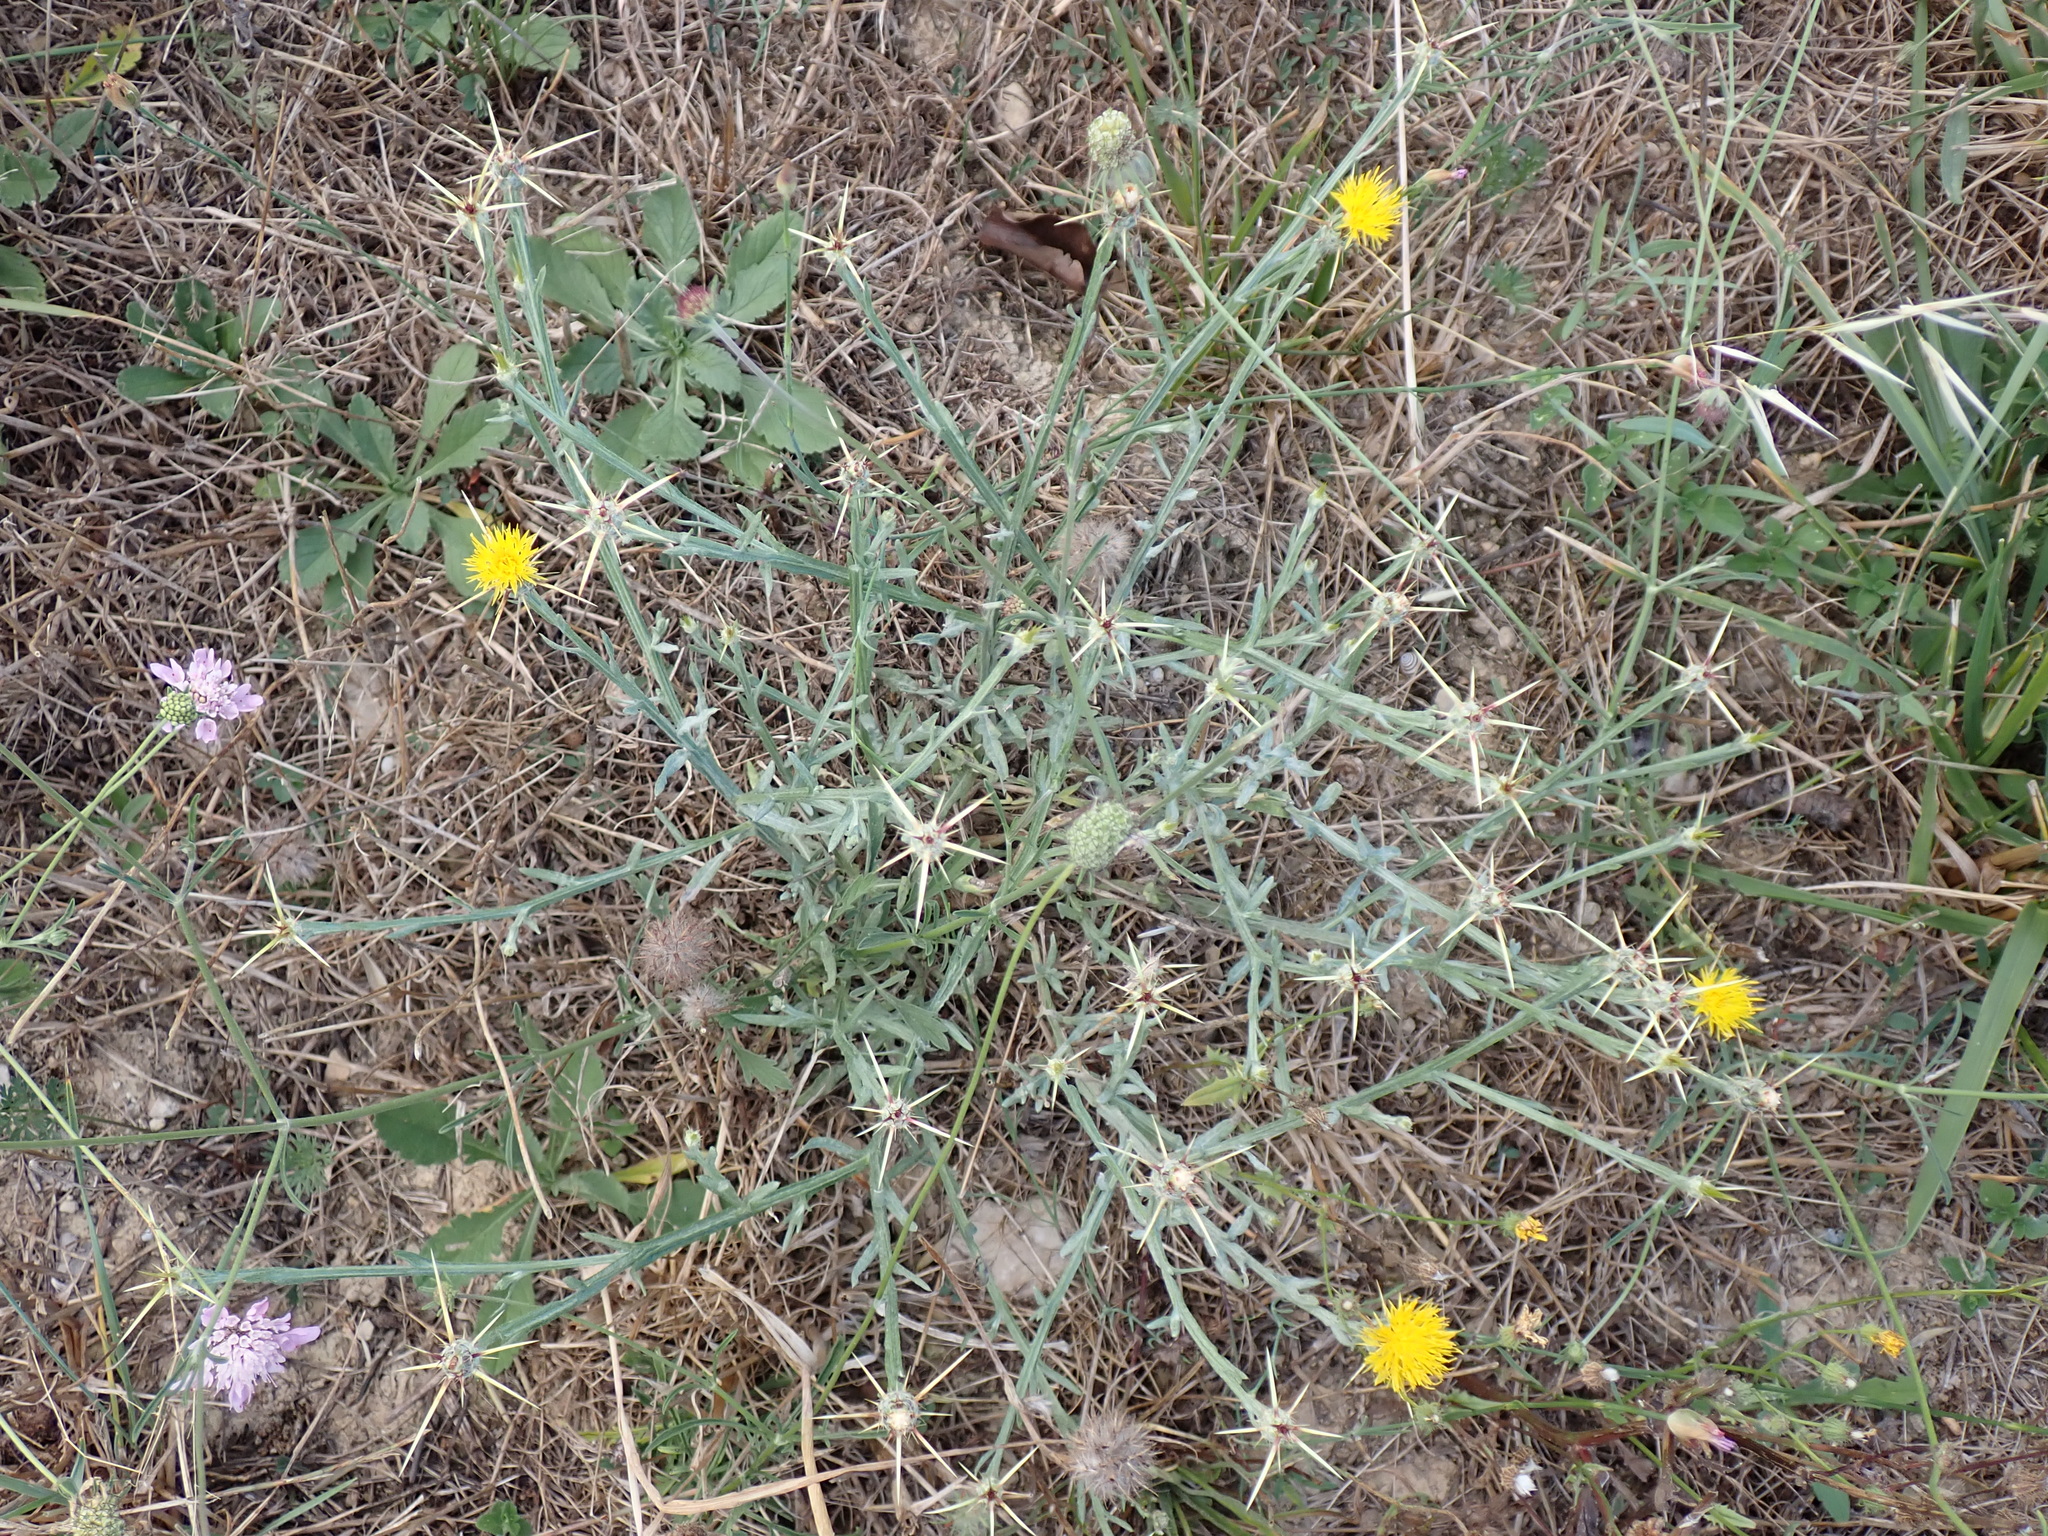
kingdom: Plantae
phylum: Tracheophyta
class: Magnoliopsida
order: Asterales
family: Asteraceae
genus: Centaurea
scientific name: Centaurea solstitialis
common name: Yellow star-thistle
